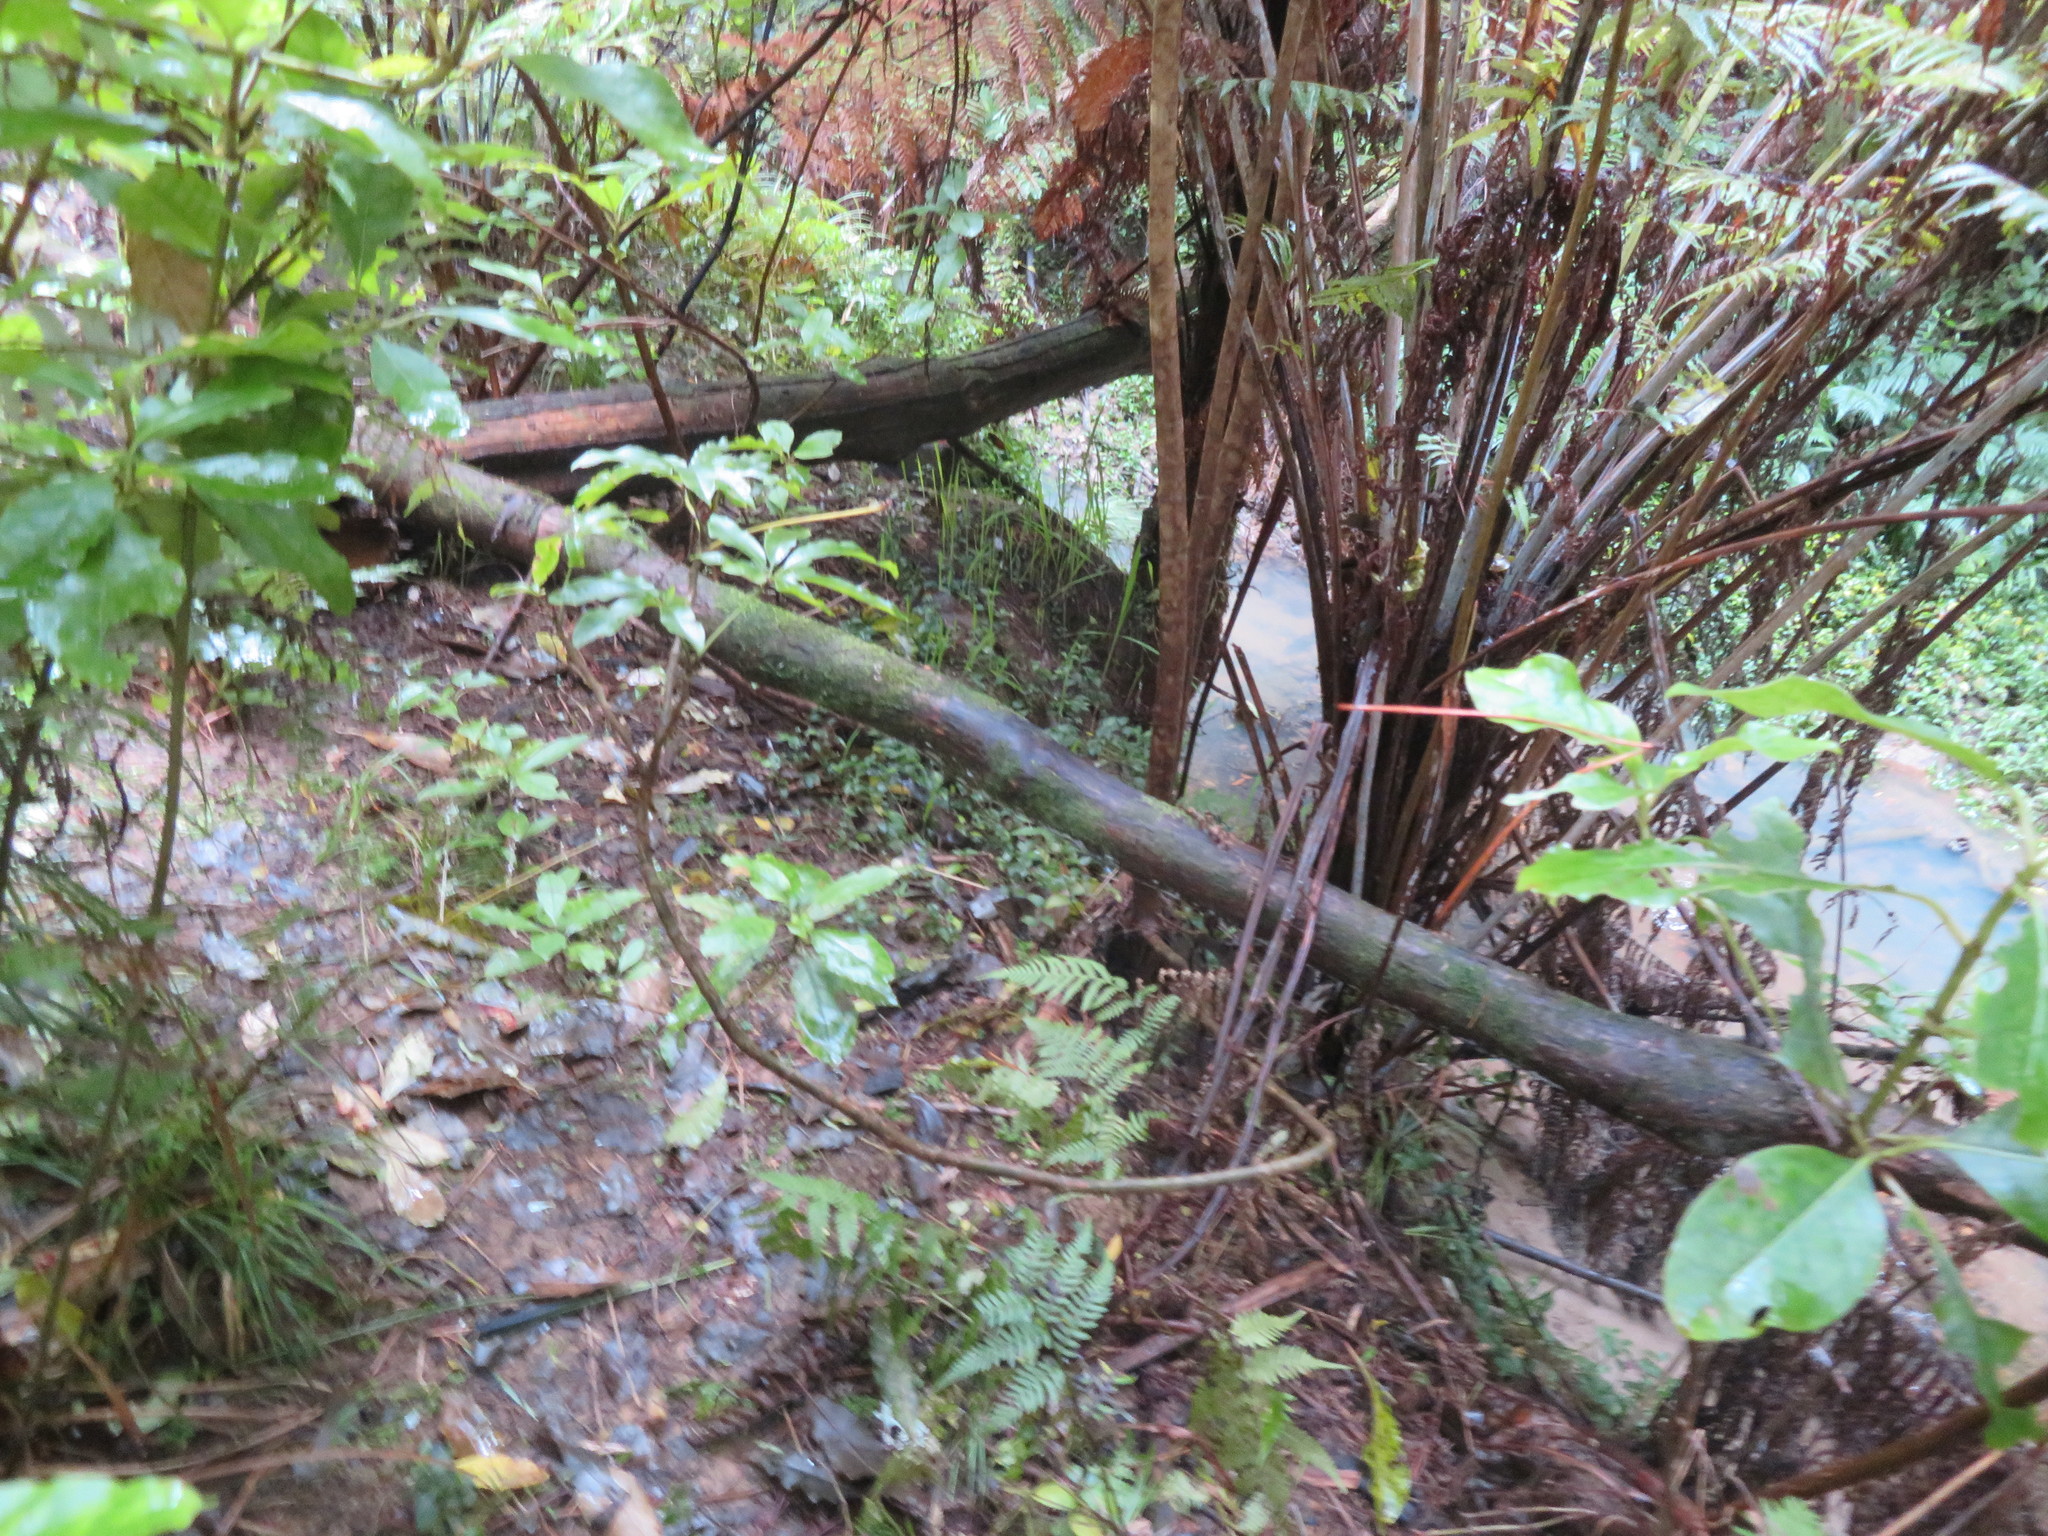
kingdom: Plantae
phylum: Tracheophyta
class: Magnoliopsida
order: Apiales
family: Araliaceae
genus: Schefflera
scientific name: Schefflera digitata
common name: Pate
